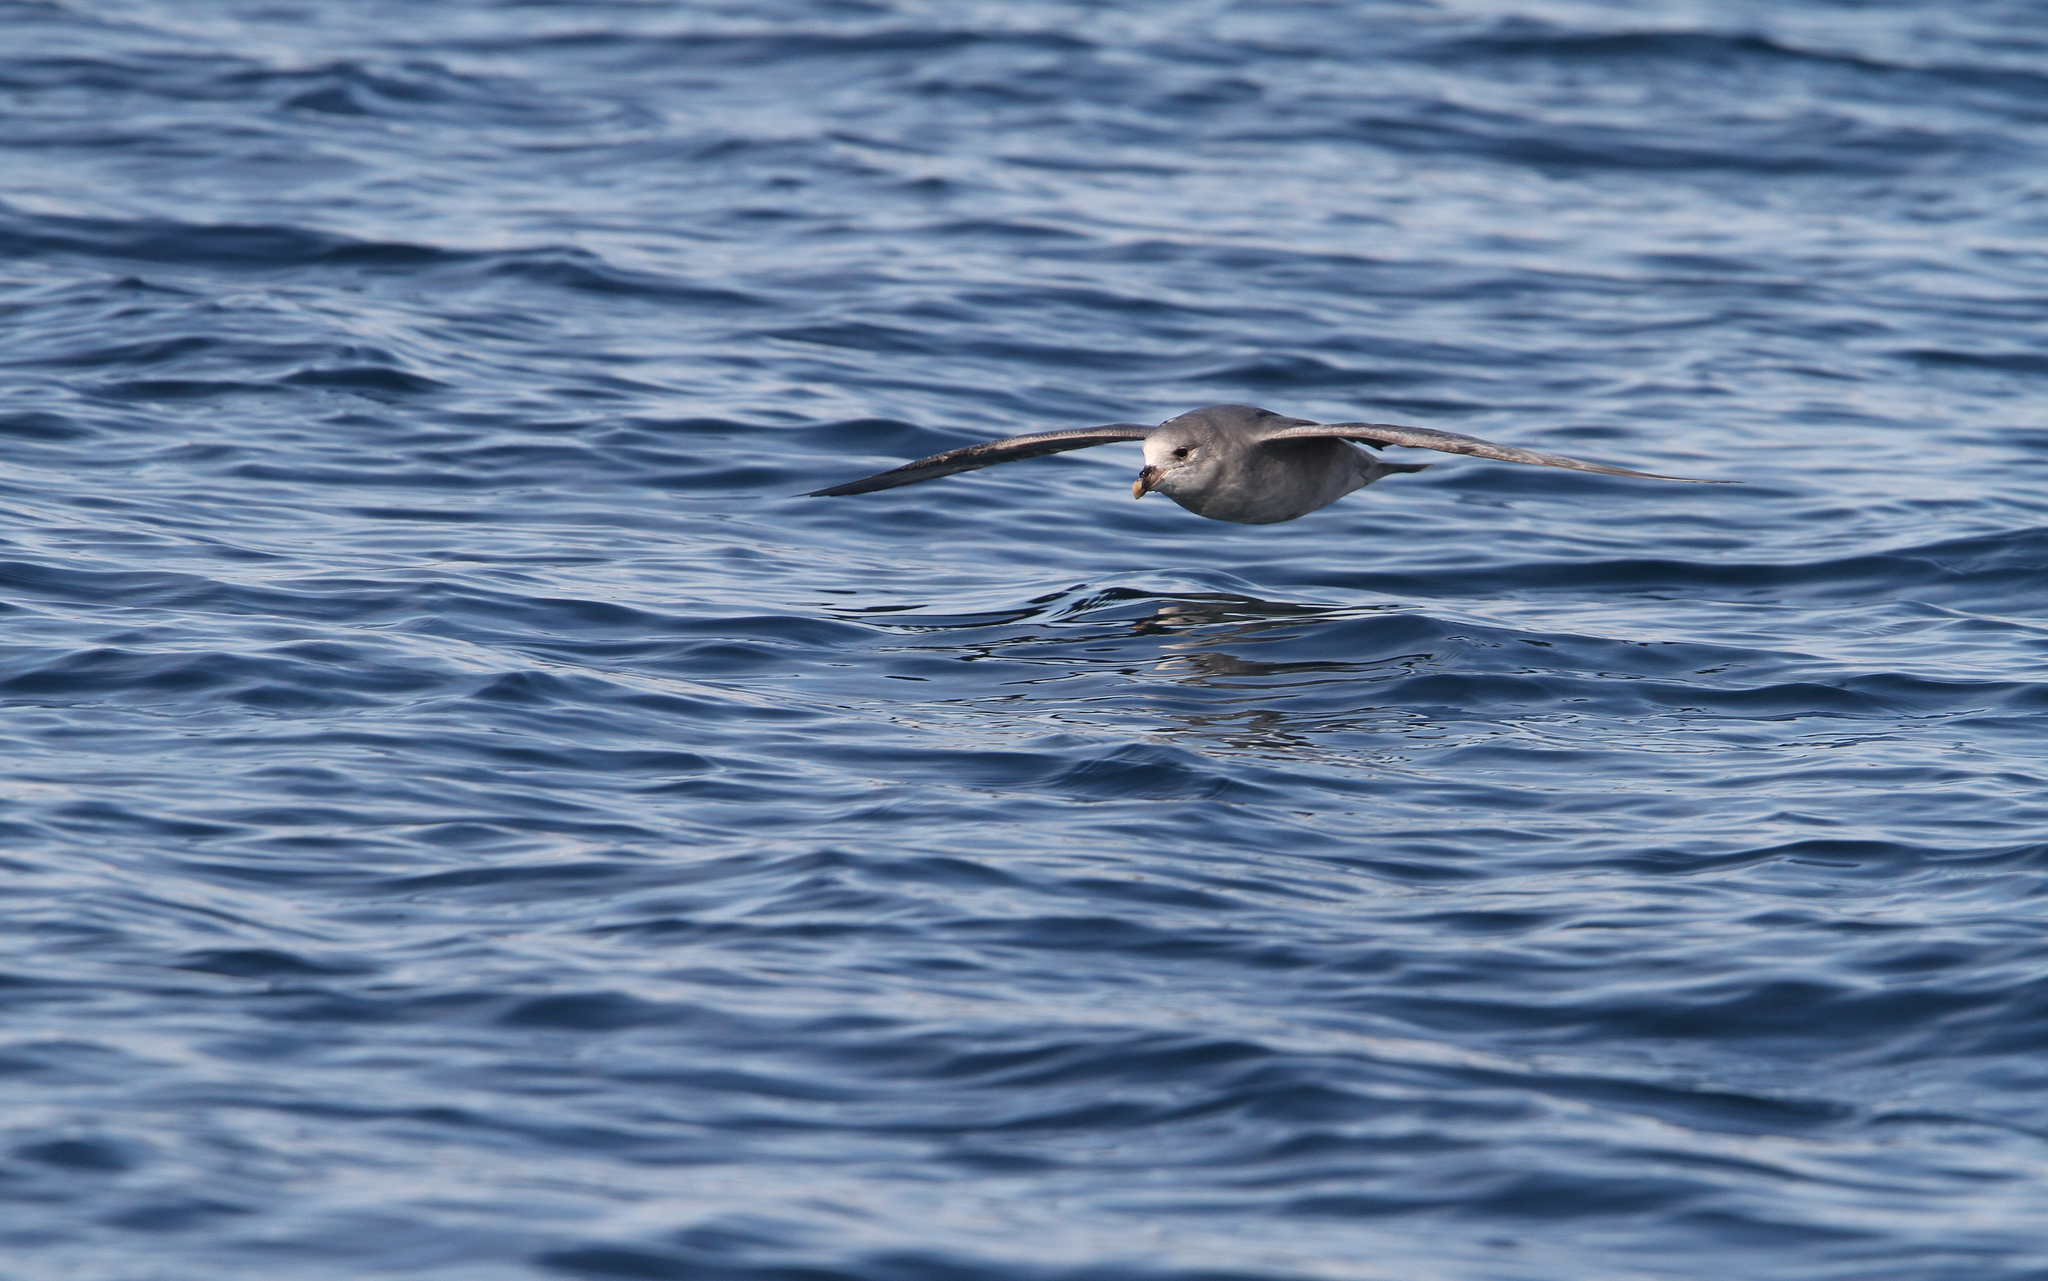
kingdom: Animalia
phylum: Chordata
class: Aves
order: Procellariiformes
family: Procellariidae
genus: Fulmarus
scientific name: Fulmarus glacialis
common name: Northern fulmar
